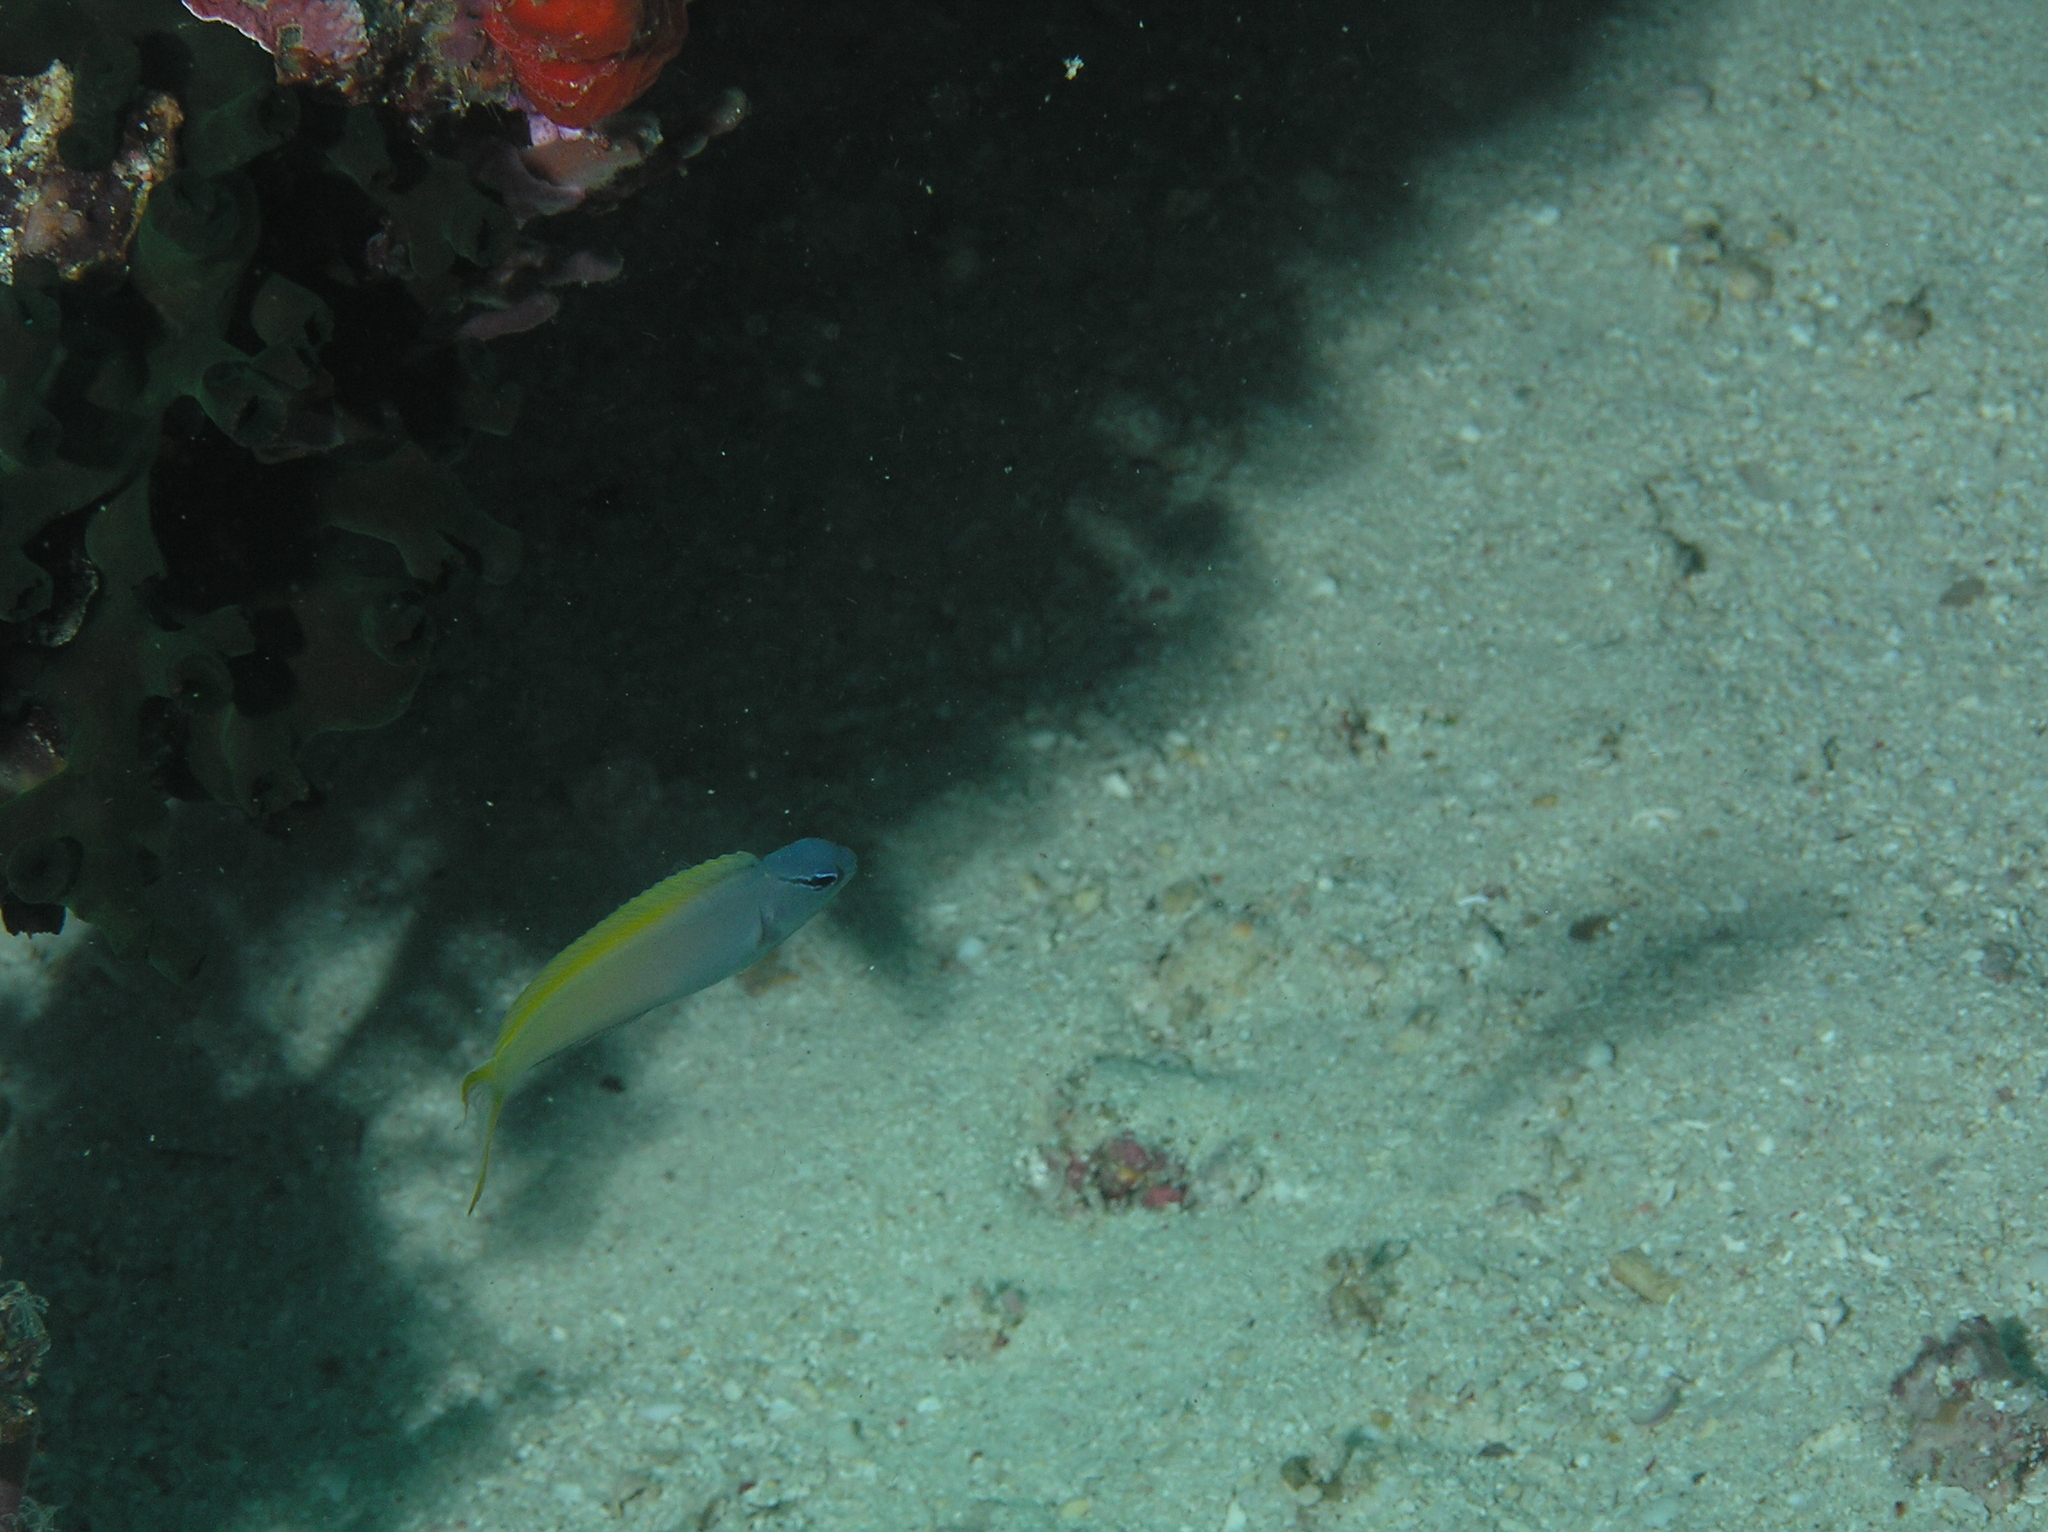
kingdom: Animalia
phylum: Chordata
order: Perciformes
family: Blenniidae
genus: Meiacanthus
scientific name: Meiacanthus atrodorsalis
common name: Eye-lash harptail-blenny
